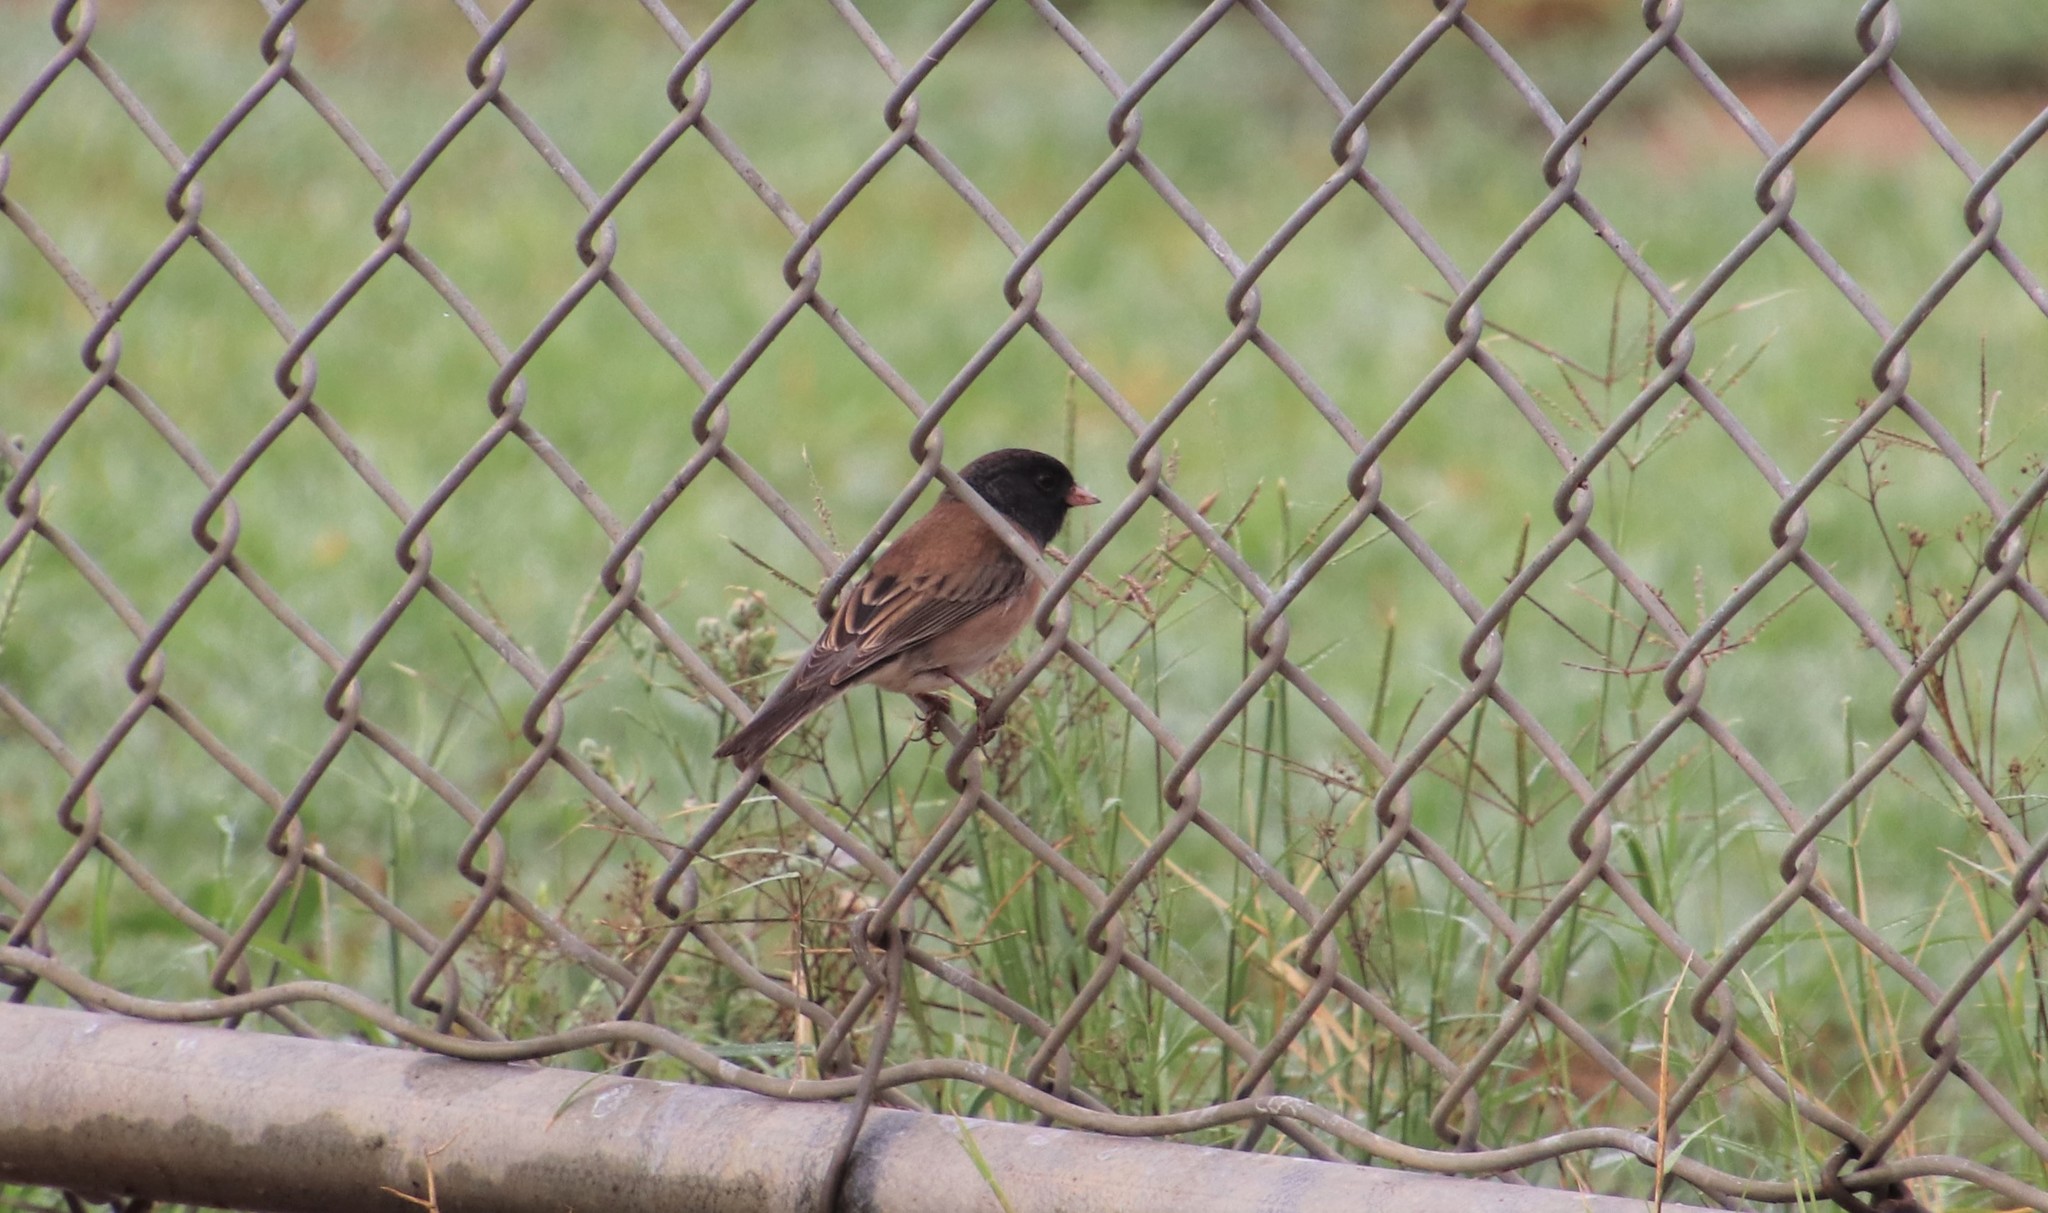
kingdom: Animalia
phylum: Chordata
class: Aves
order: Passeriformes
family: Passerellidae
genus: Junco
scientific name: Junco hyemalis
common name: Dark-eyed junco
